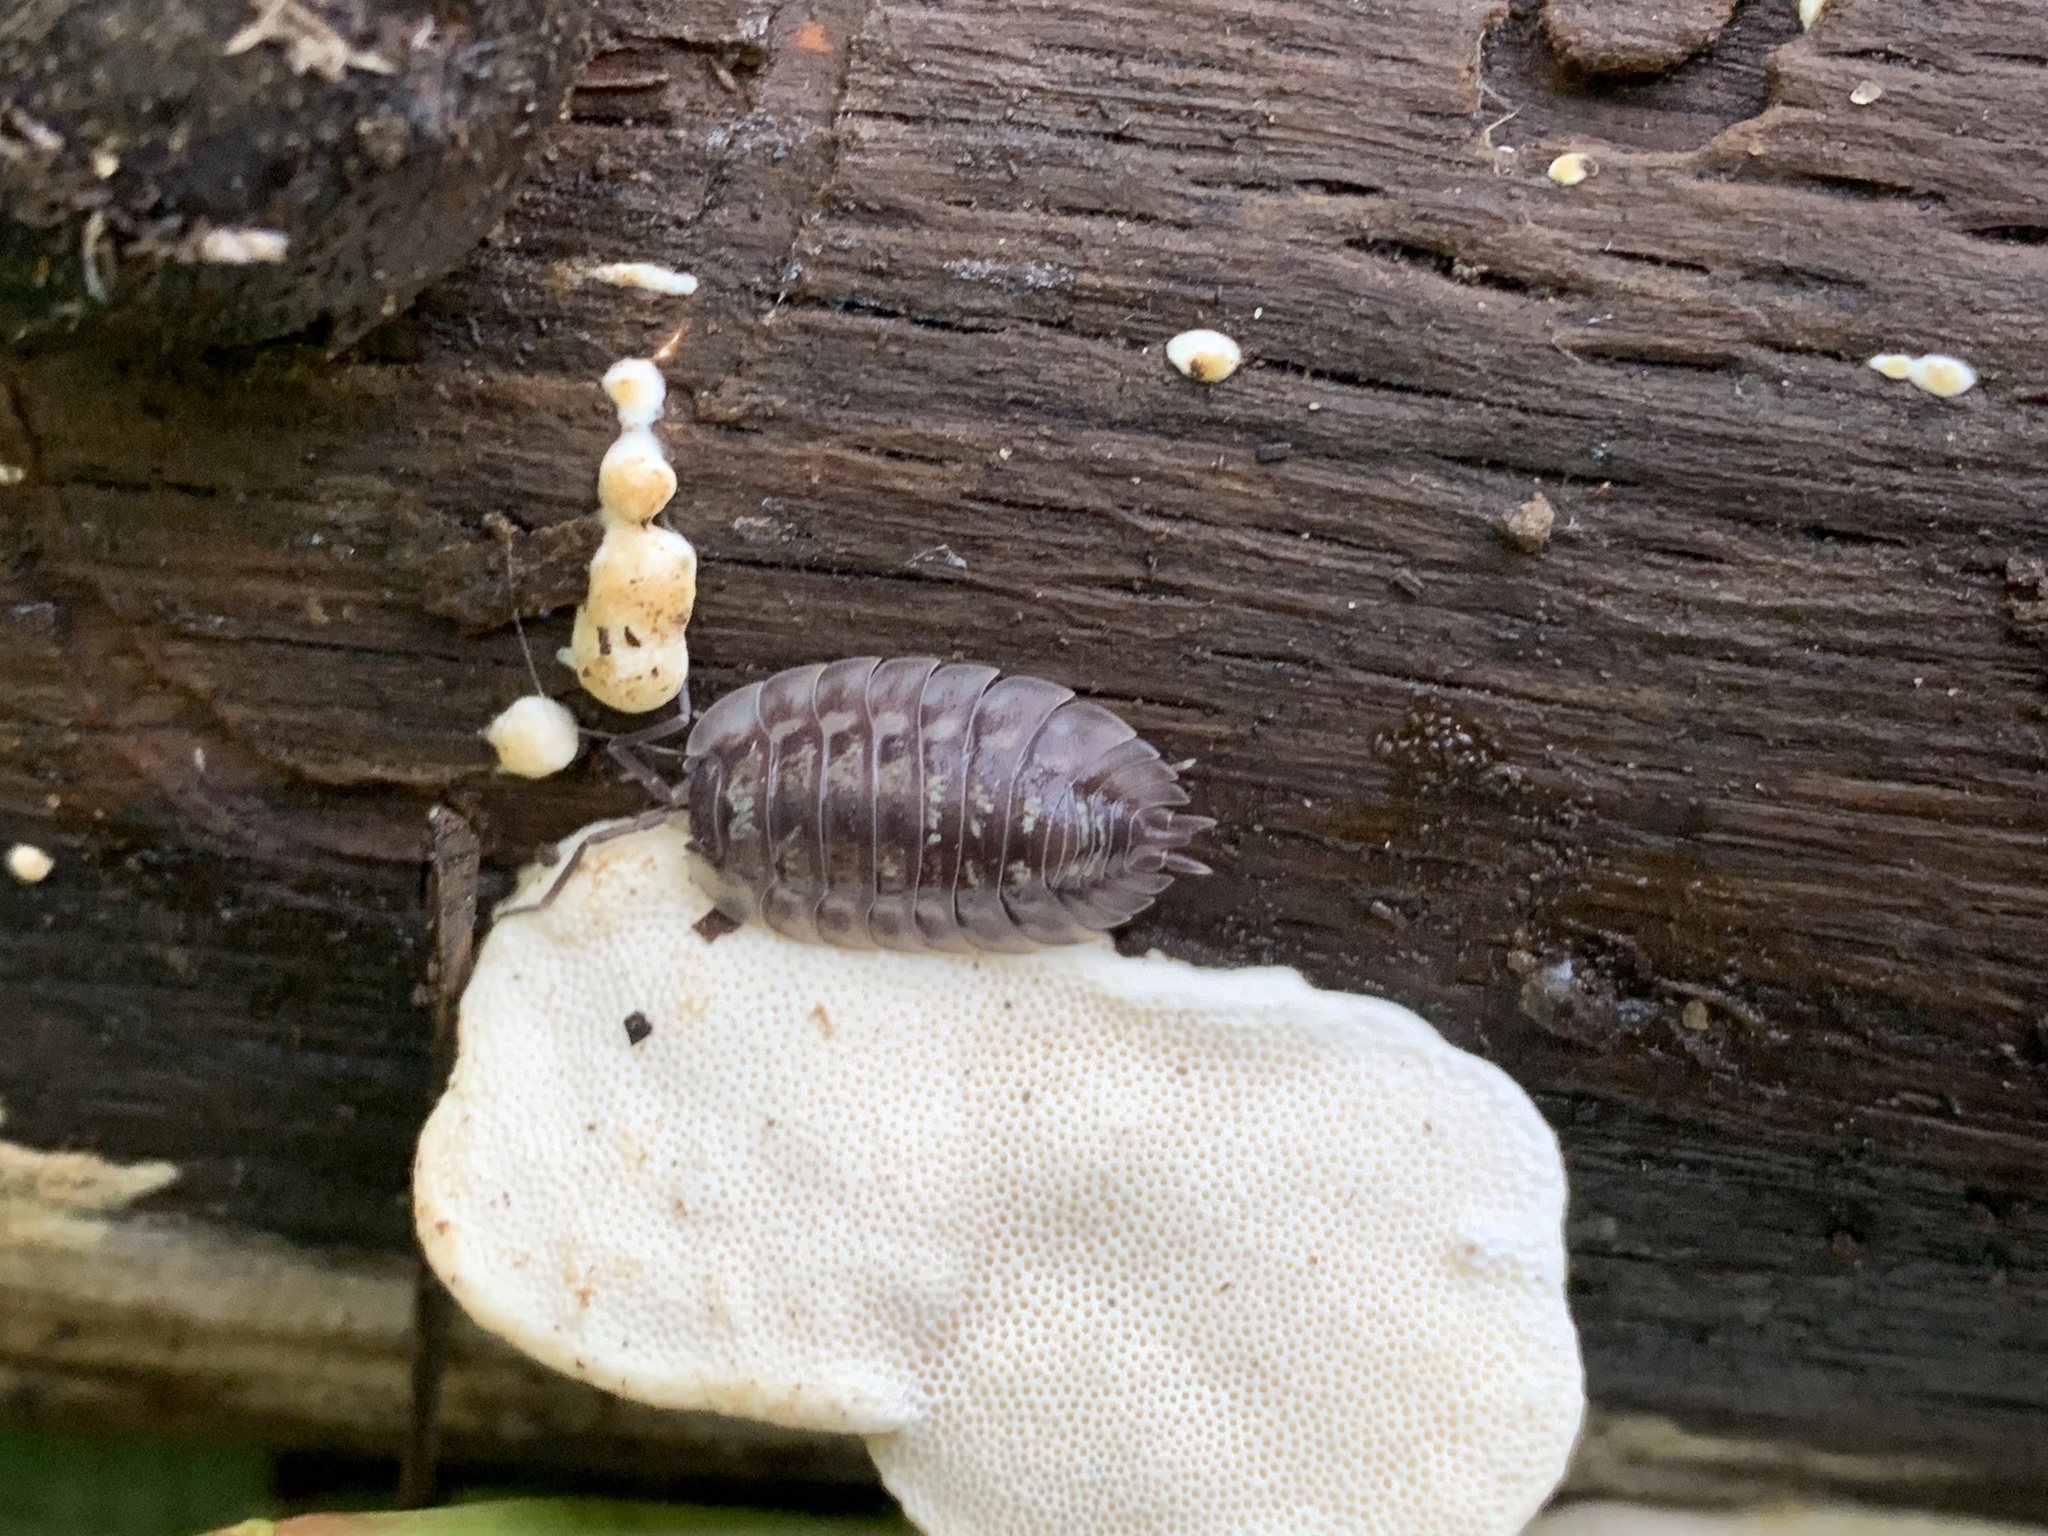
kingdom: Animalia
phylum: Arthropoda
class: Malacostraca
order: Isopoda
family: Oniscidae
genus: Oniscus
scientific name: Oniscus asellus
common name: Common shiny woodlouse
